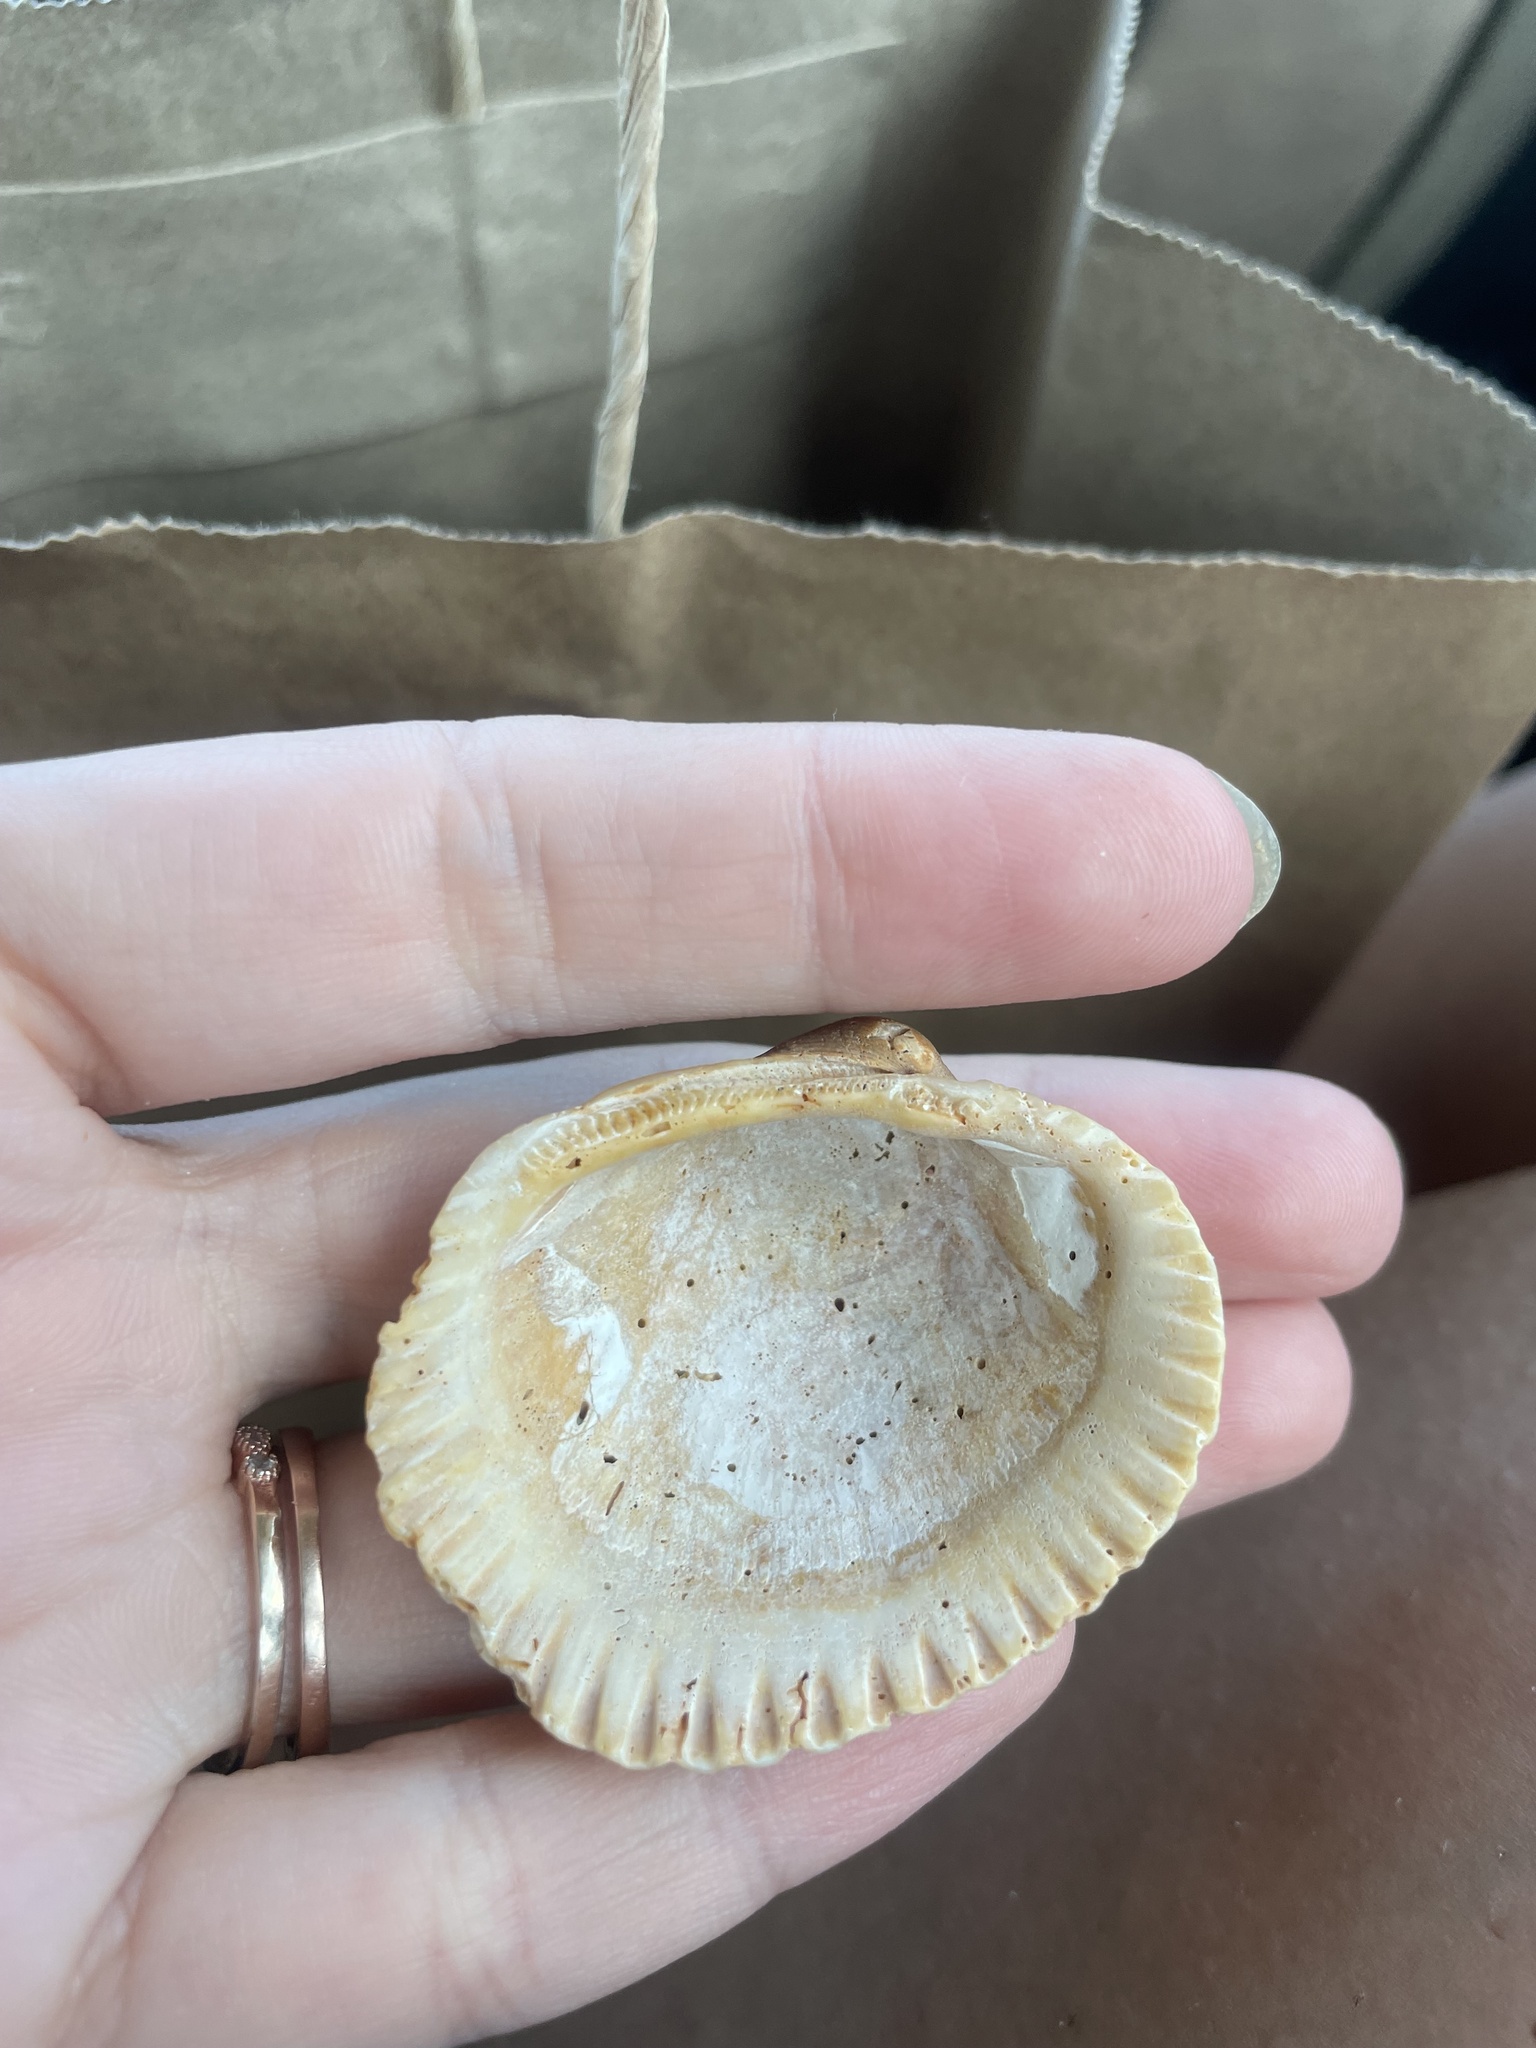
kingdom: Animalia
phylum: Mollusca
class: Bivalvia
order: Arcida
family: Arcidae
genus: Lunarca
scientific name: Lunarca ovalis
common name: Blood ark
